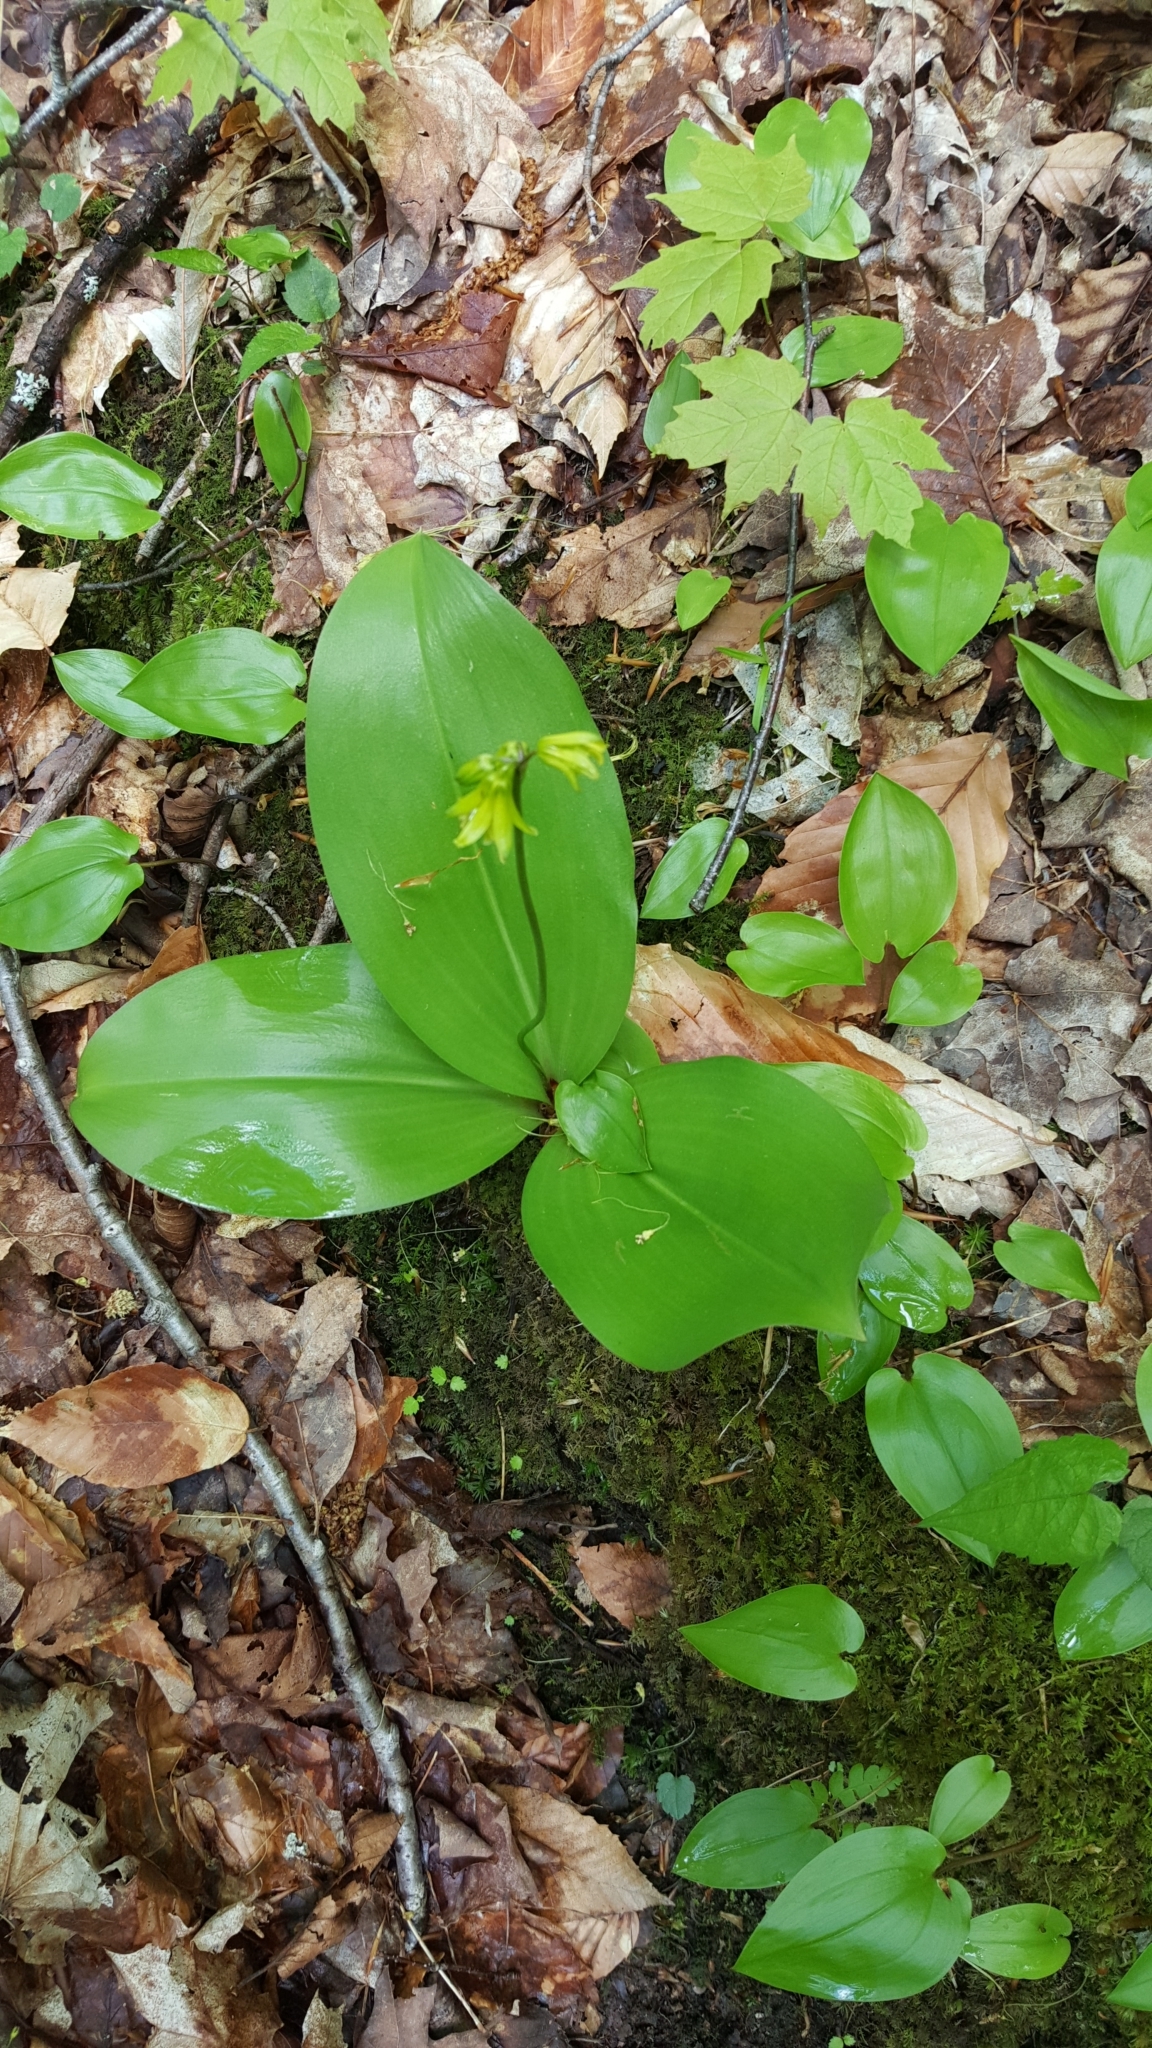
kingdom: Plantae
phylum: Tracheophyta
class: Liliopsida
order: Liliales
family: Liliaceae
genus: Clintonia
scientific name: Clintonia borealis
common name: Yellow clintonia
